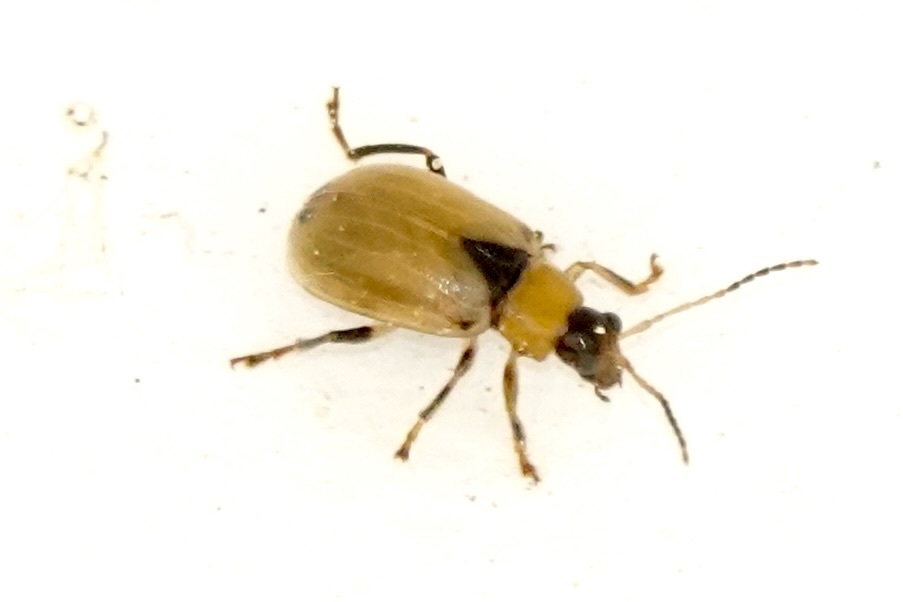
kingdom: Animalia
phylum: Arthropoda
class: Insecta
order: Coleoptera
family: Chrysomelidae
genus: Cerotoma
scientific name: Cerotoma trifurcata
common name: Bean leaf beetle
